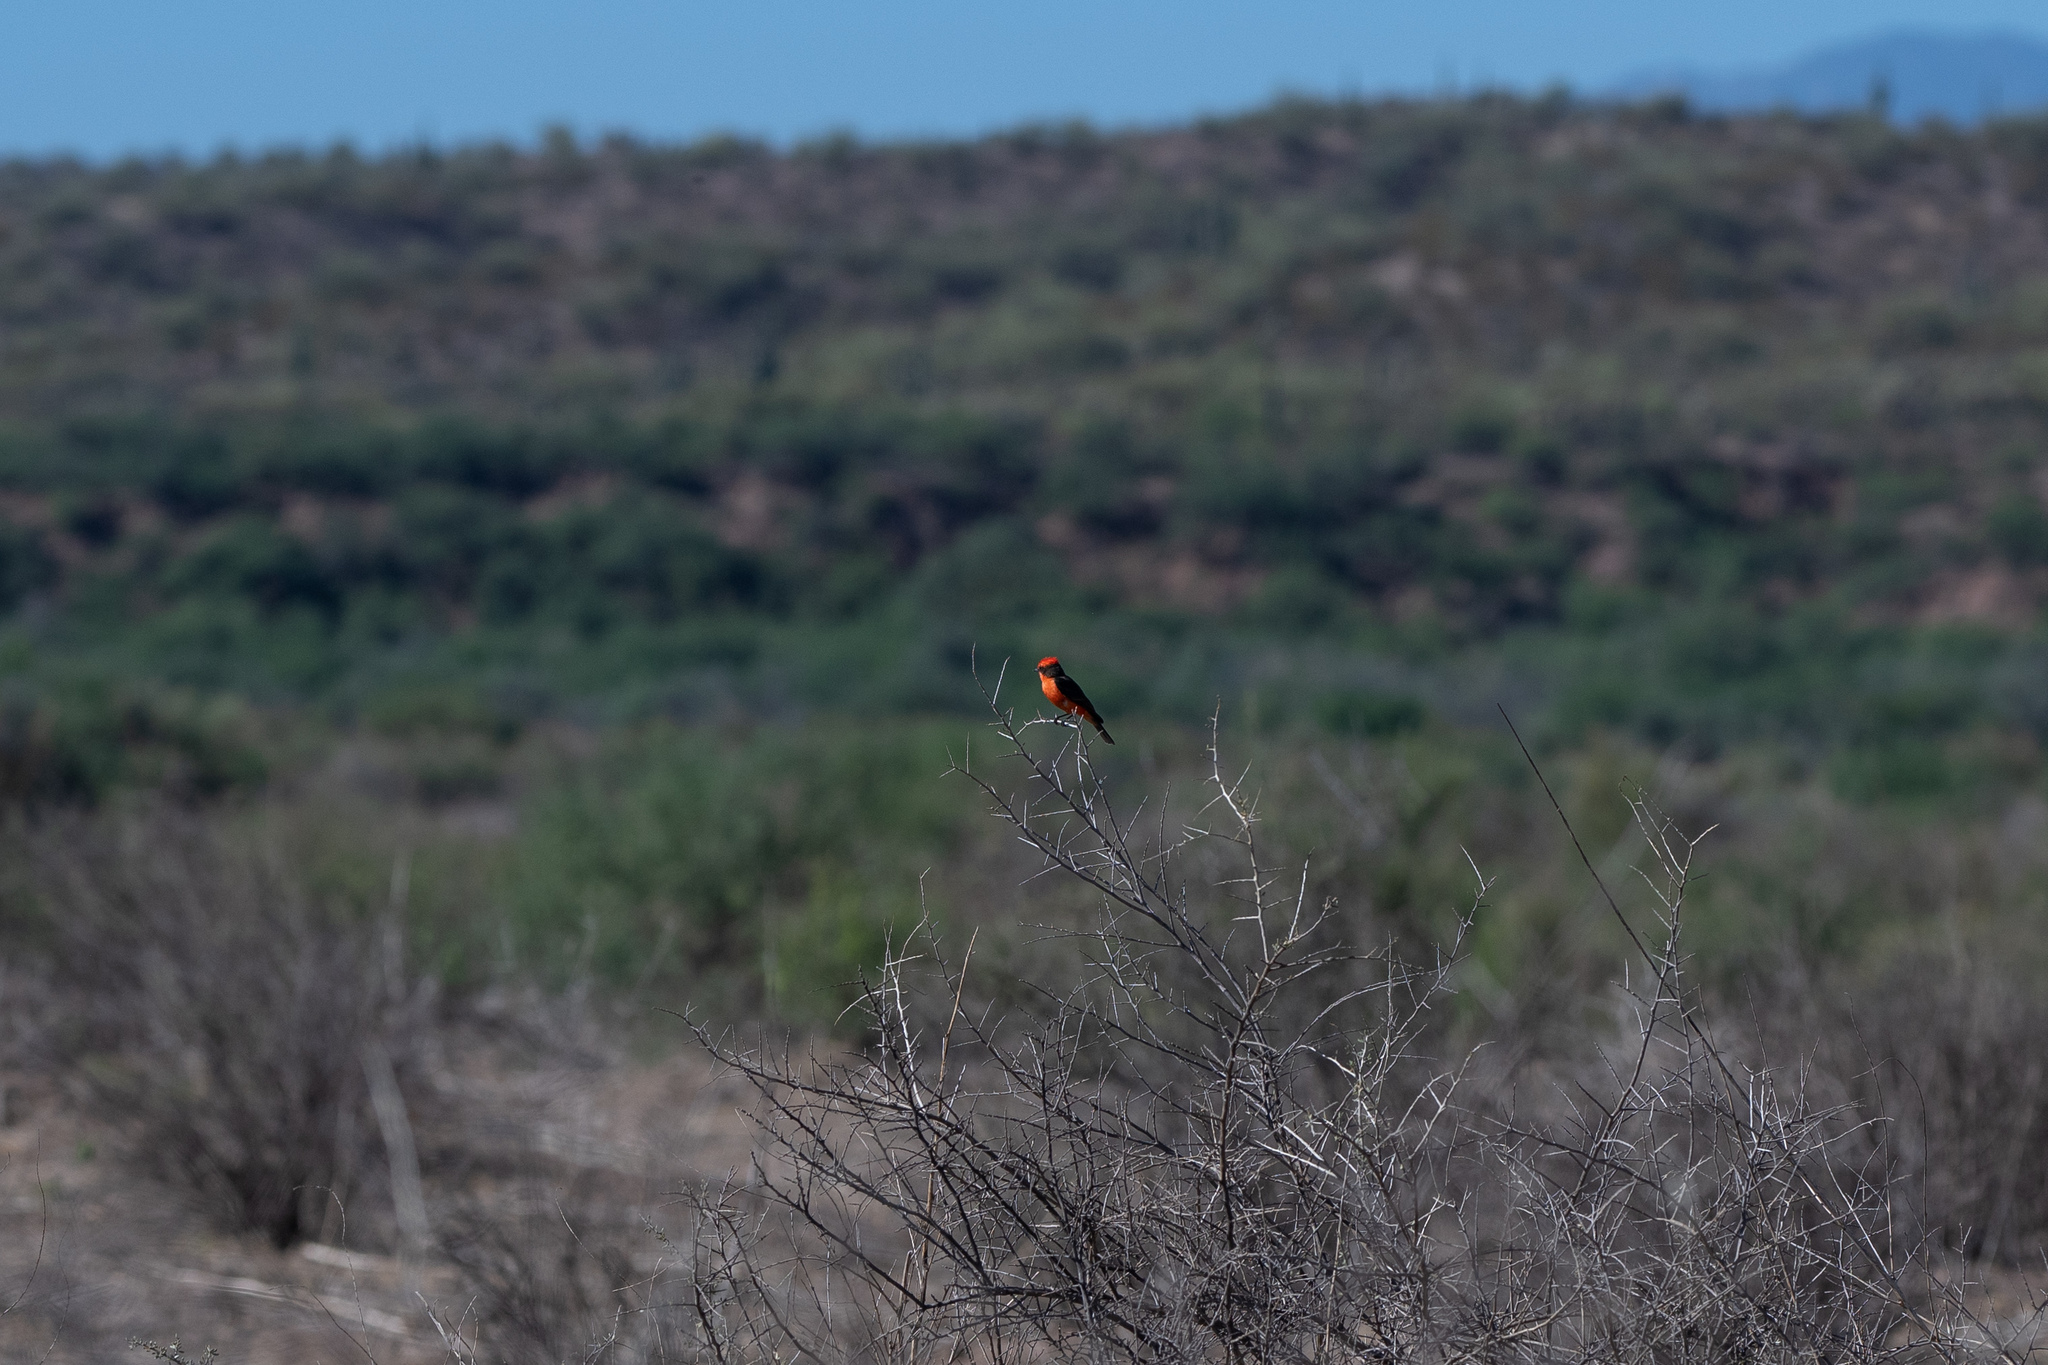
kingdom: Animalia
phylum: Chordata
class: Aves
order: Passeriformes
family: Tyrannidae
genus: Pyrocephalus
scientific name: Pyrocephalus rubinus
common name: Vermilion flycatcher
